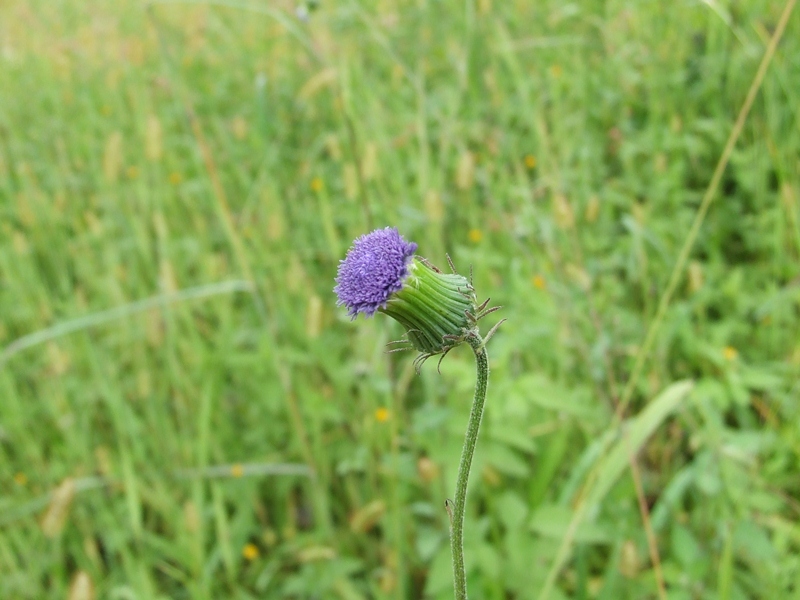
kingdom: Plantae
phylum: Tracheophyta
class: Magnoliopsida
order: Asterales
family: Asteraceae
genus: Crassocephalum
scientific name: Crassocephalum rubens
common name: Yoruban bologi
